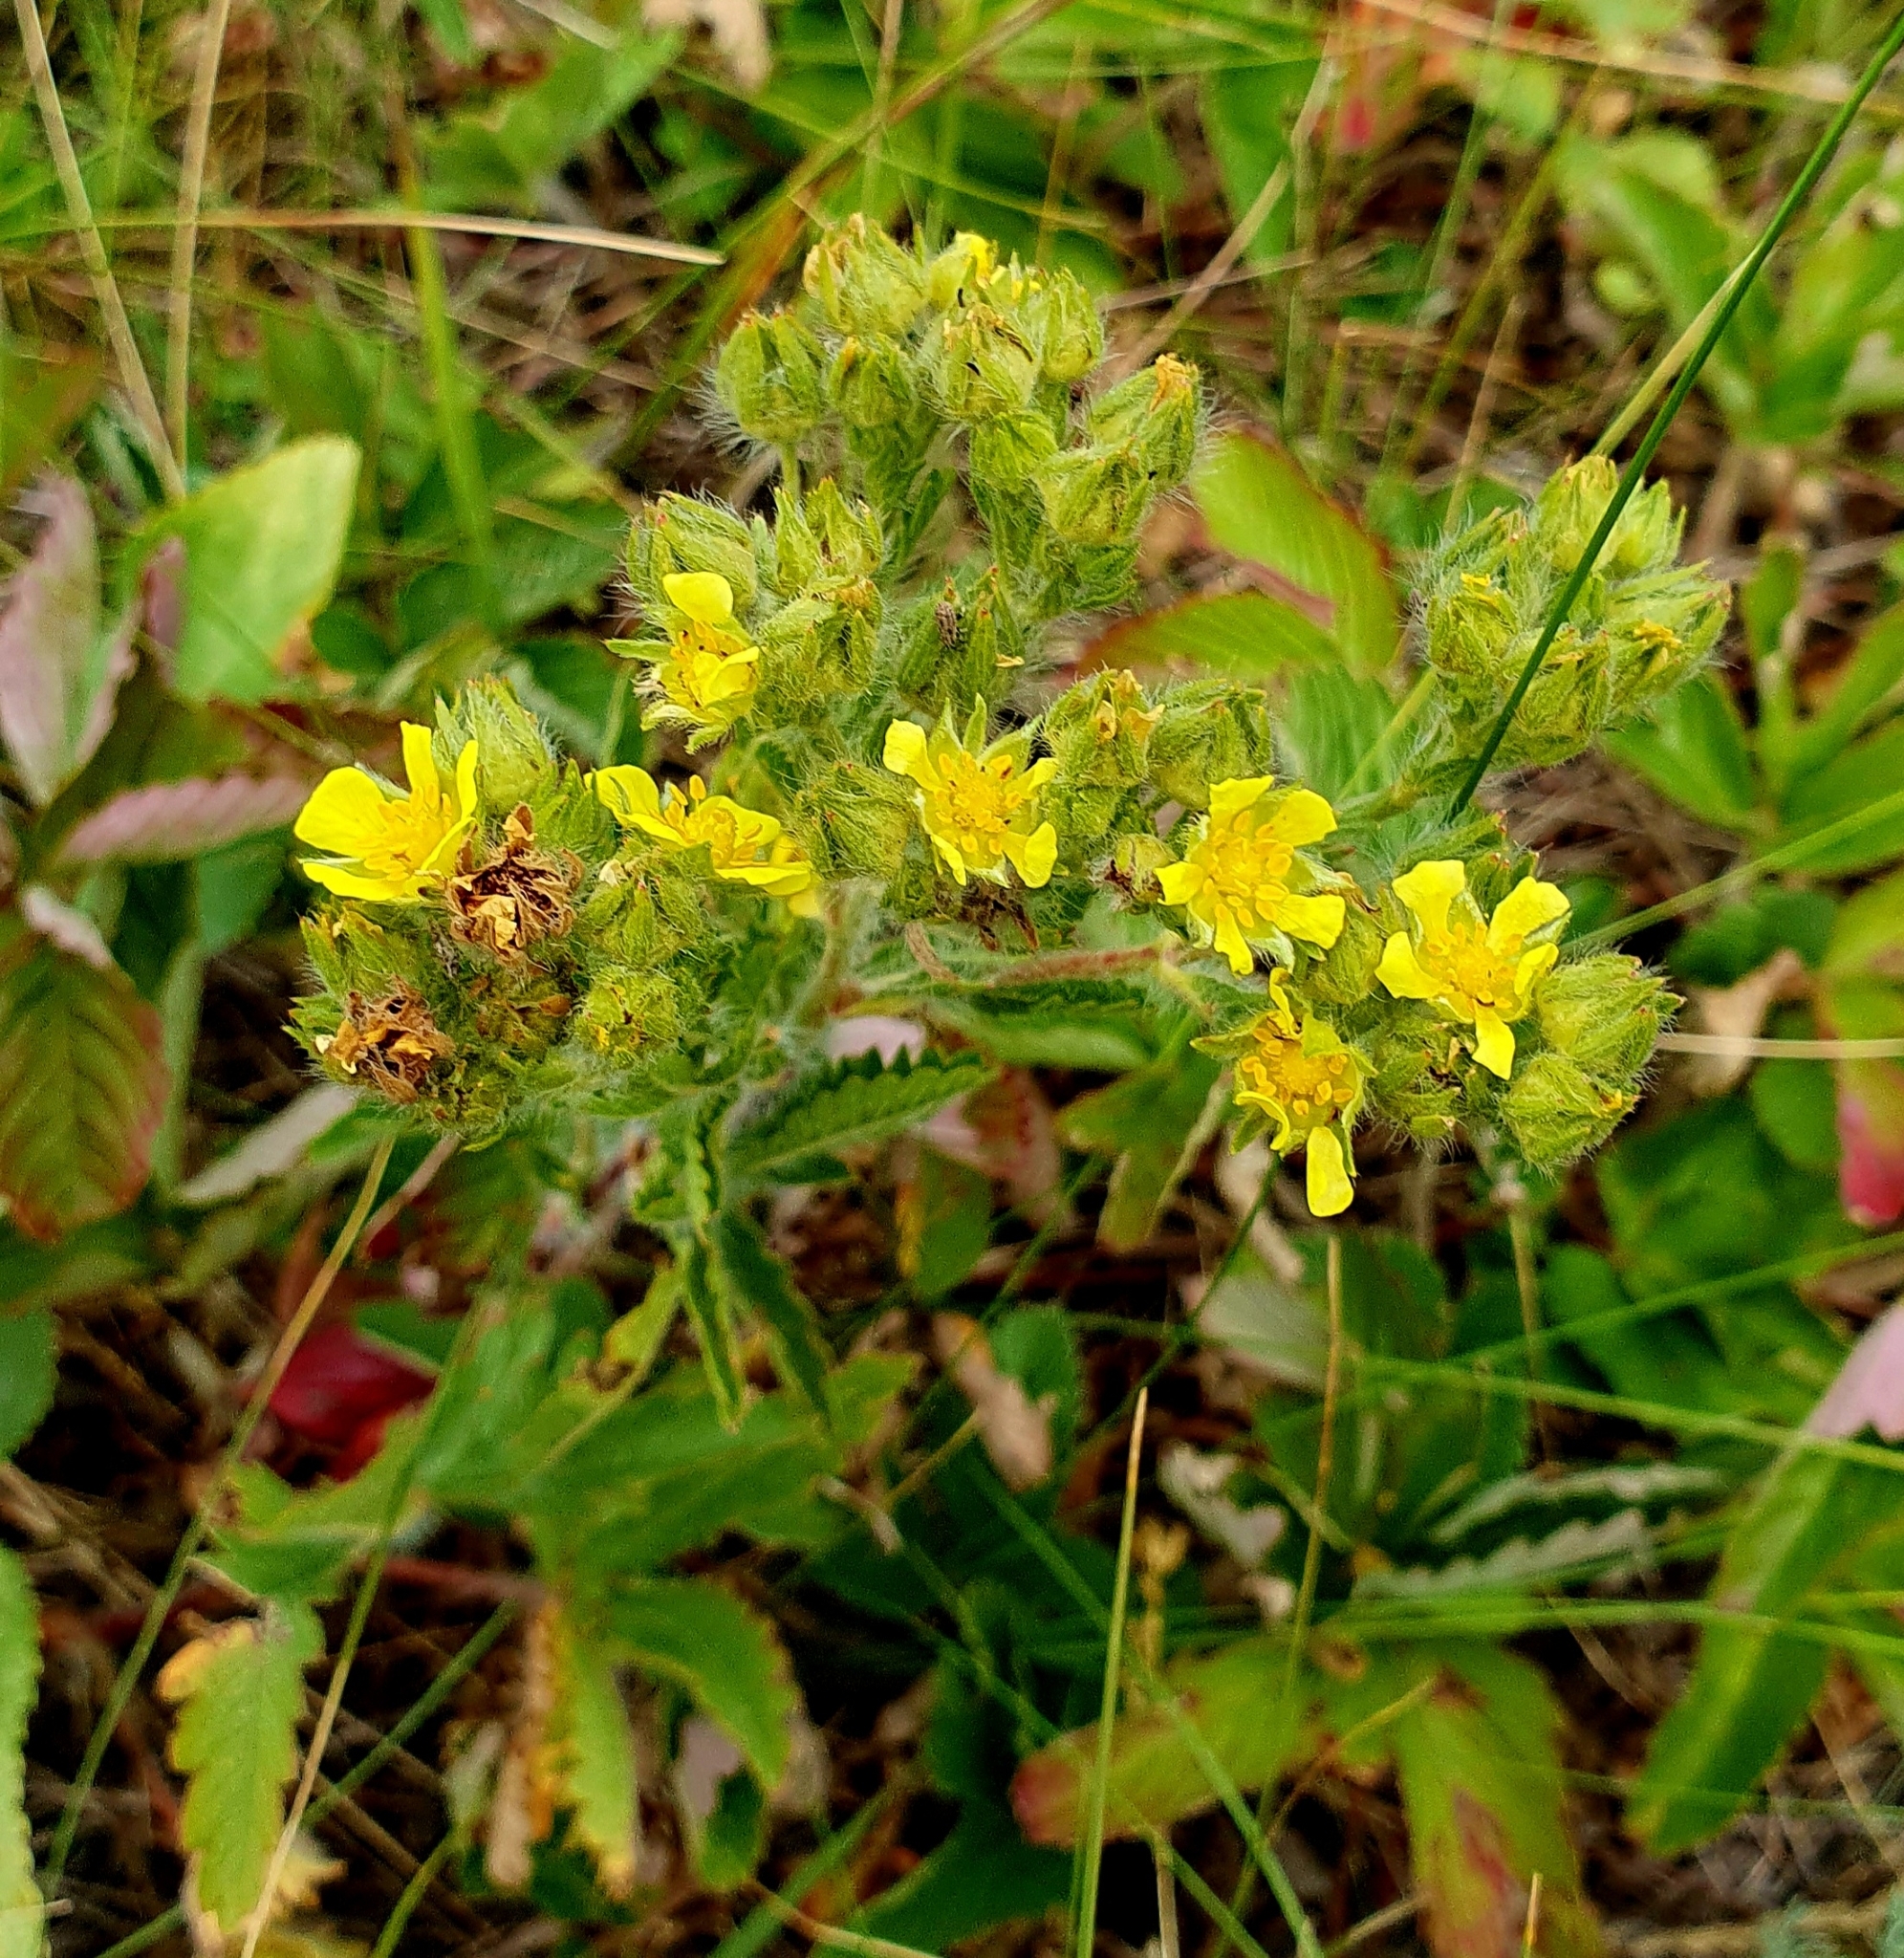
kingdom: Plantae
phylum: Tracheophyta
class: Magnoliopsida
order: Rosales
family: Rosaceae
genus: Potentilla
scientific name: Potentilla recta
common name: Sulphur cinquefoil
